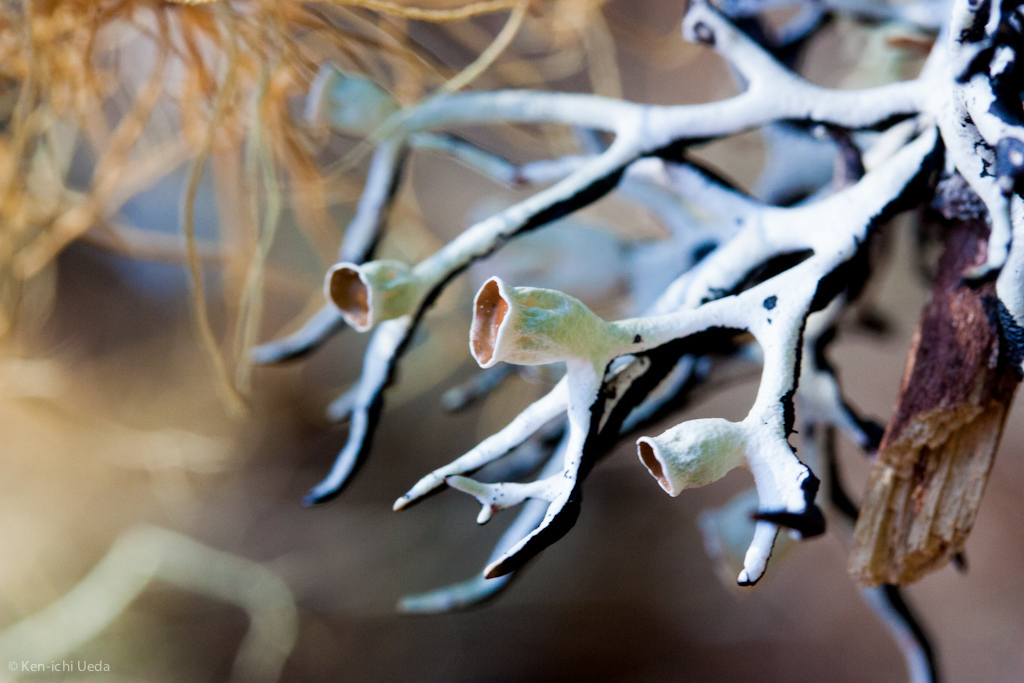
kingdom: Fungi
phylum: Ascomycota
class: Lecanoromycetes
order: Lecanorales
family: Parmeliaceae
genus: Hypogymnia
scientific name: Hypogymnia imshaugii
